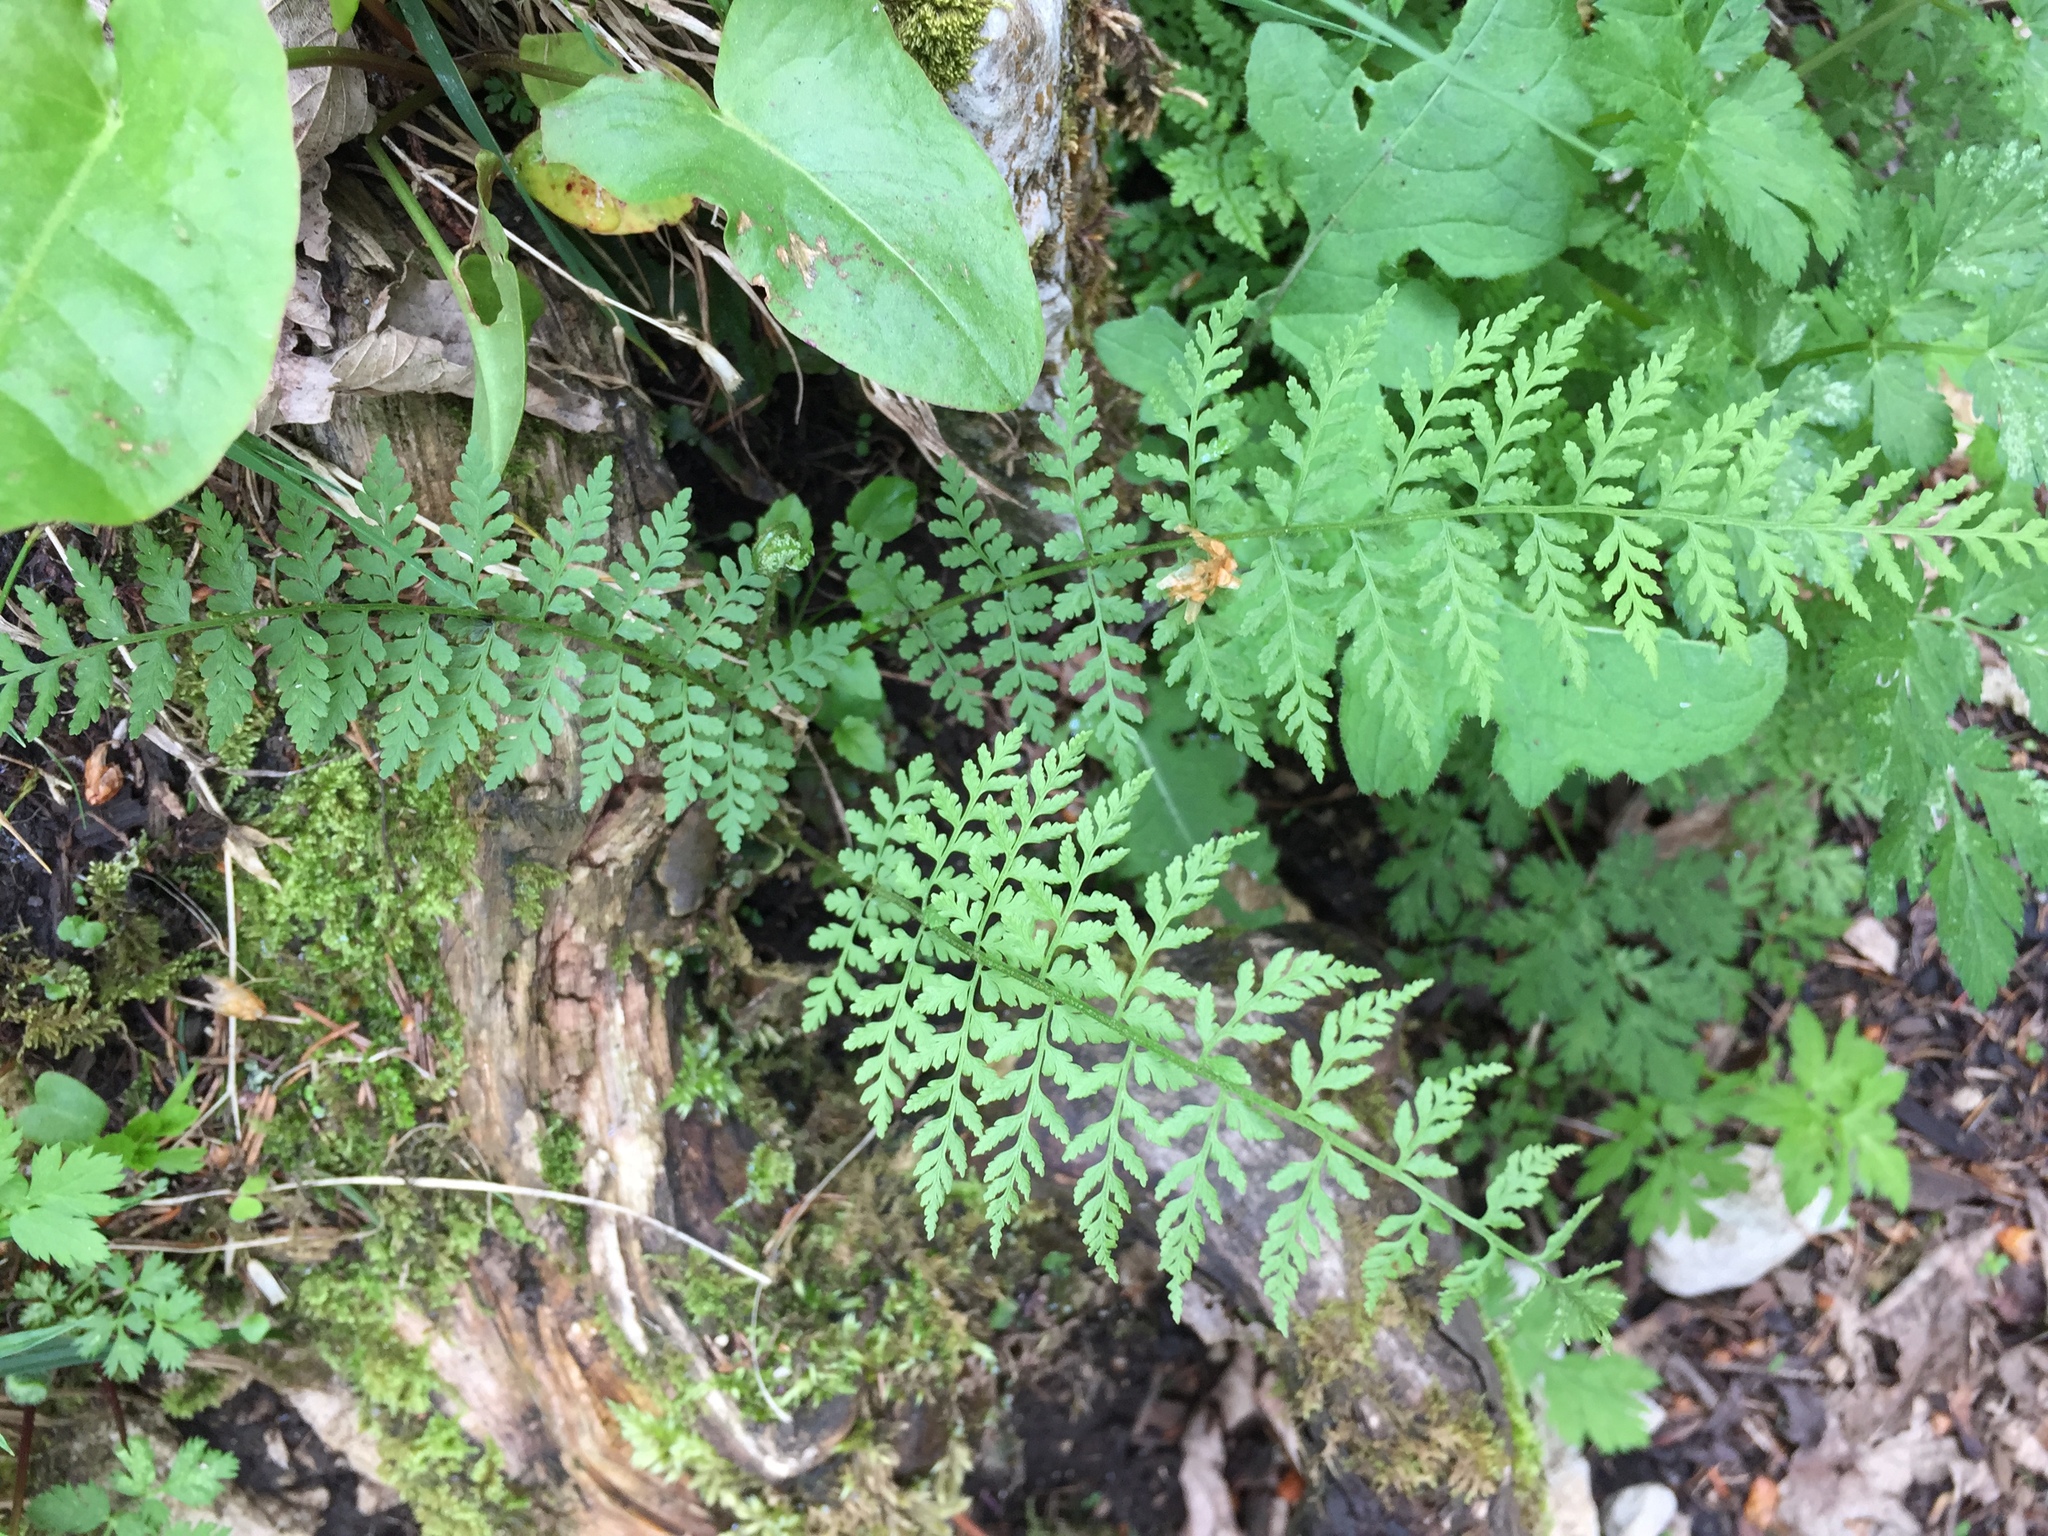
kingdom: Plantae
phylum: Tracheophyta
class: Polypodiopsida
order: Polypodiales
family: Cystopteridaceae
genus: Cystopteris
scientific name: Cystopteris fragilis
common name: Brittle bladder fern
